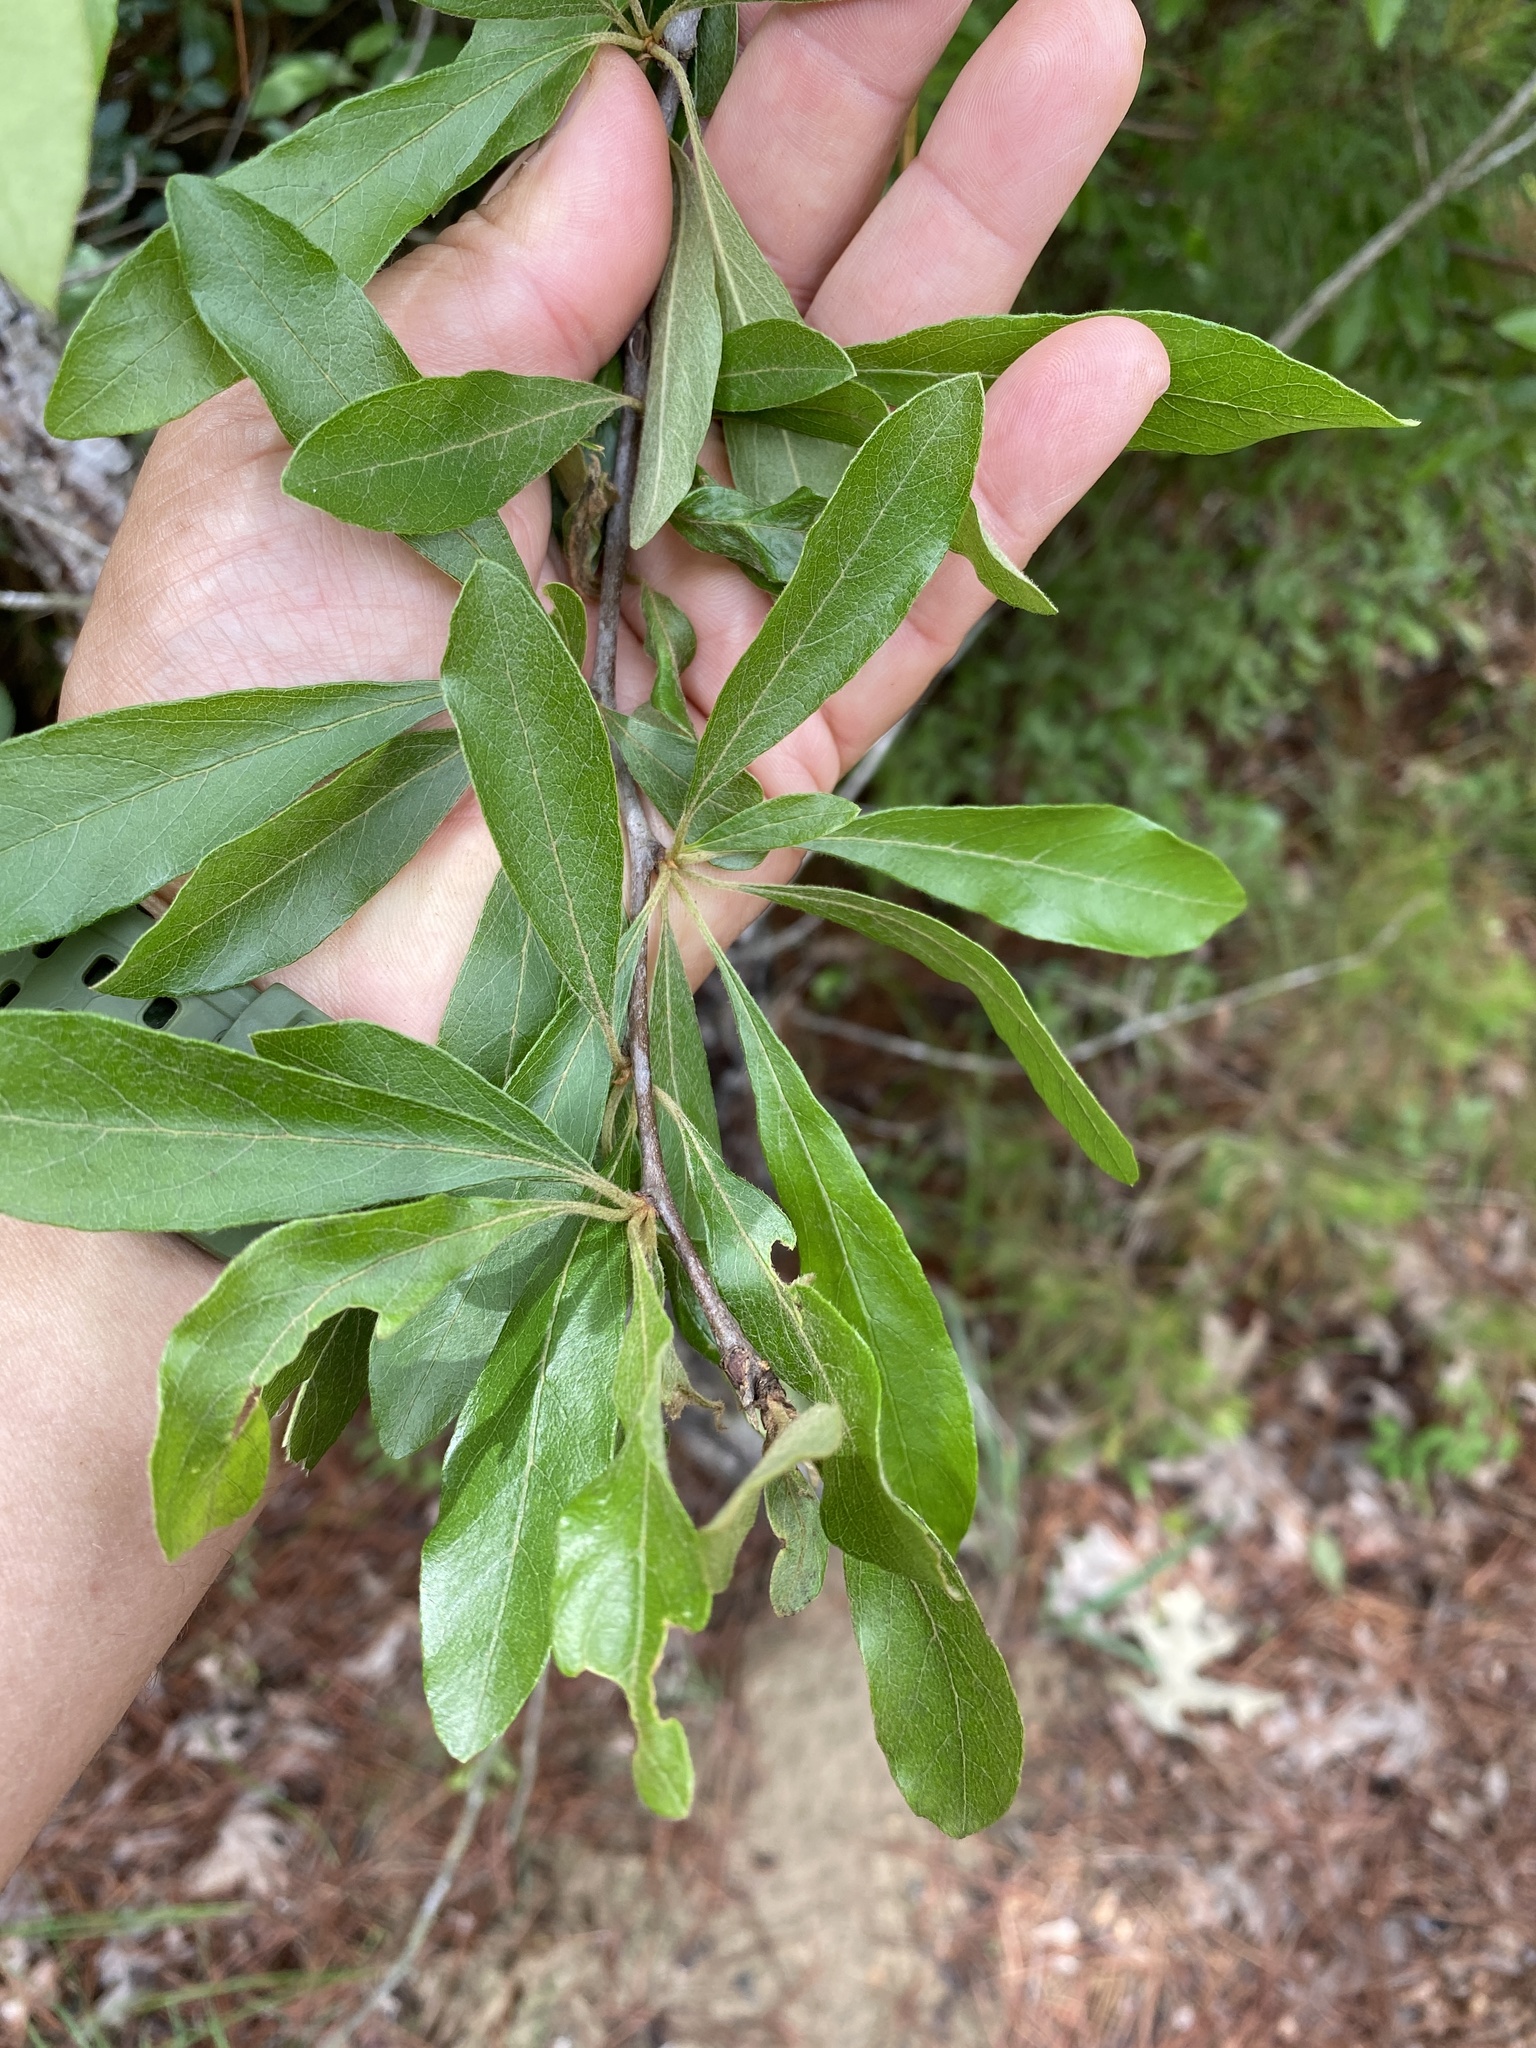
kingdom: Plantae
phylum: Tracheophyta
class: Magnoliopsida
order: Ericales
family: Sapotaceae
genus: Sideroxylon
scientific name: Sideroxylon lanuginosum
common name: Chittamwood
